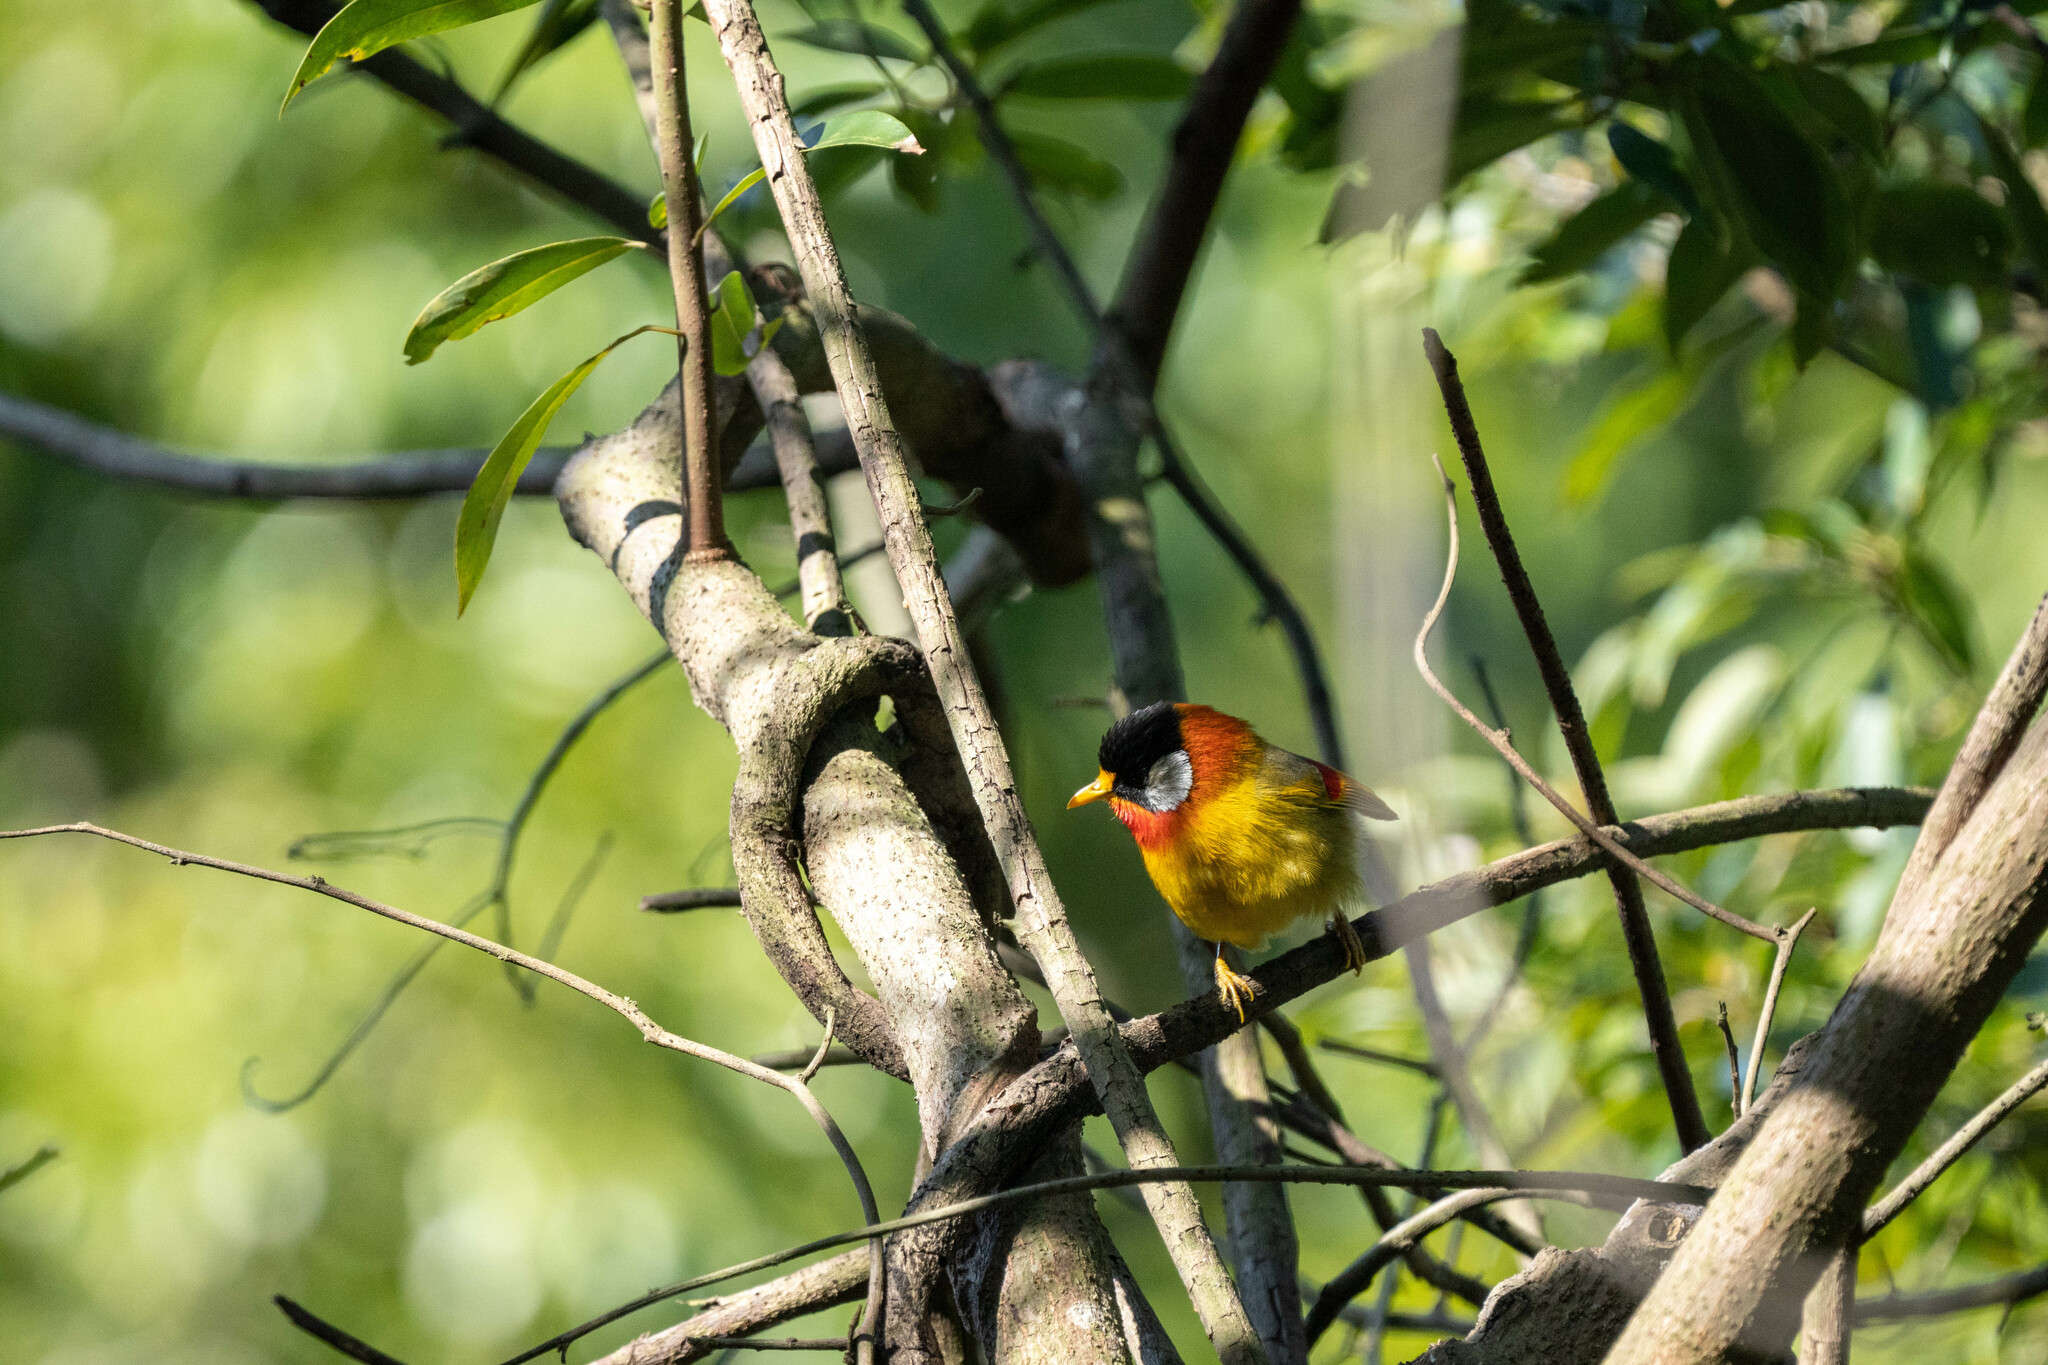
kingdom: Animalia
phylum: Chordata
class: Aves
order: Passeriformes
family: Leiothrichidae
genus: Leiothrix
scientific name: Leiothrix argentauris
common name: Silver-eared mesia
